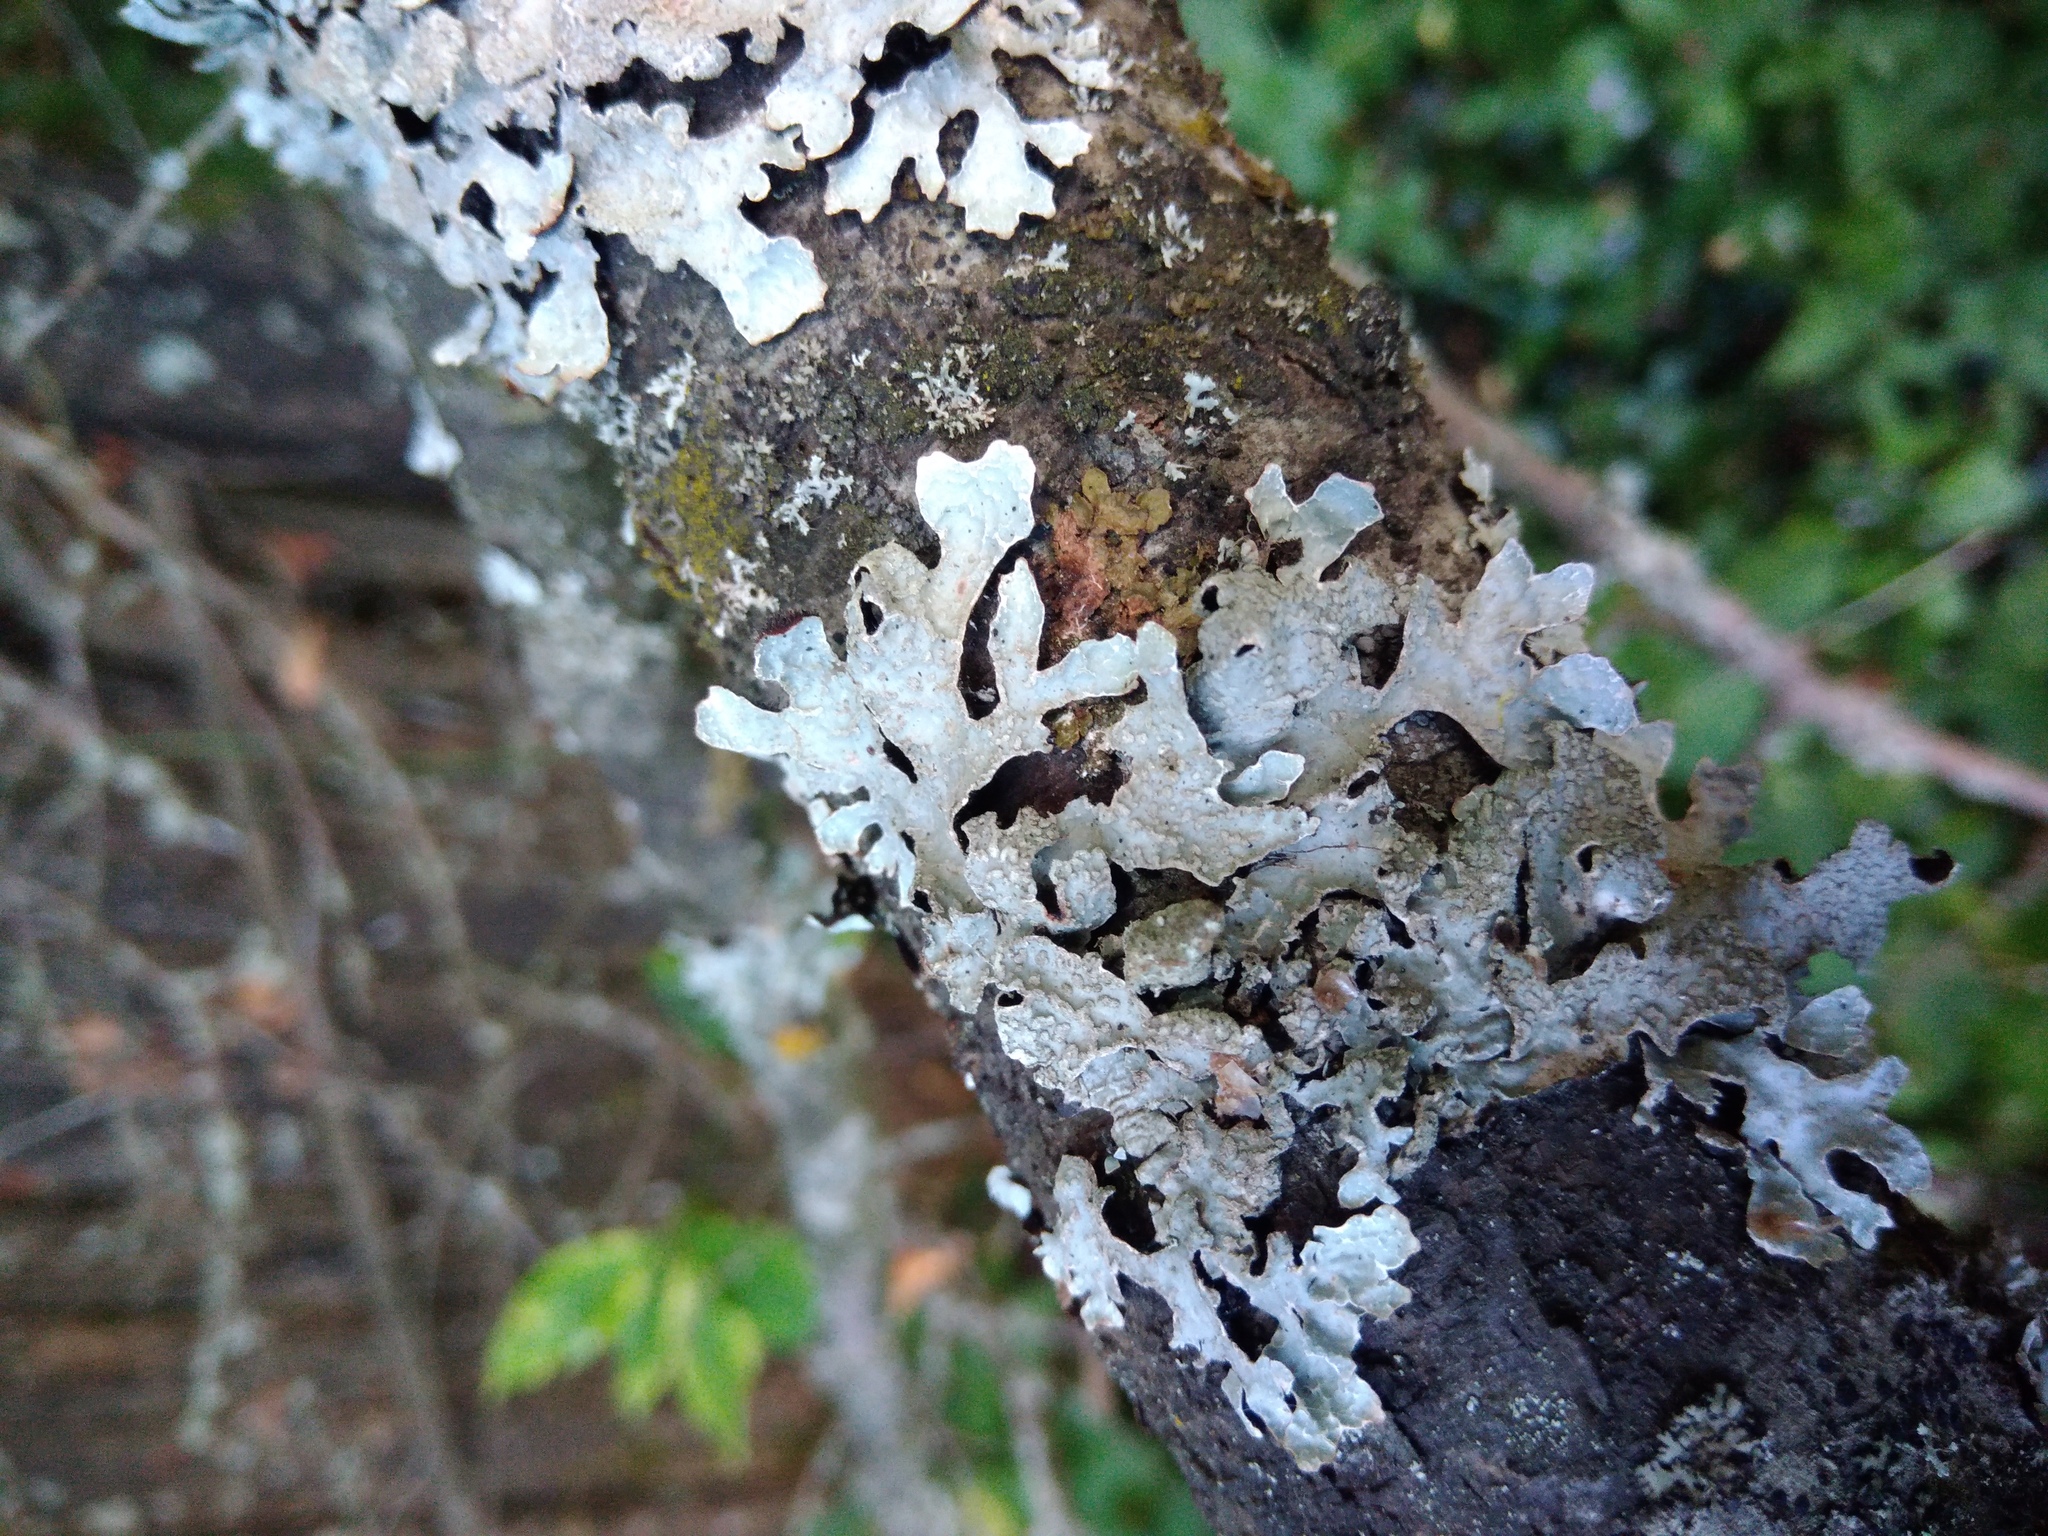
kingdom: Fungi
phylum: Ascomycota
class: Lecanoromycetes
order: Lecanorales
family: Parmeliaceae
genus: Parmelia
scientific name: Parmelia sulcata
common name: Netted shield lichen
